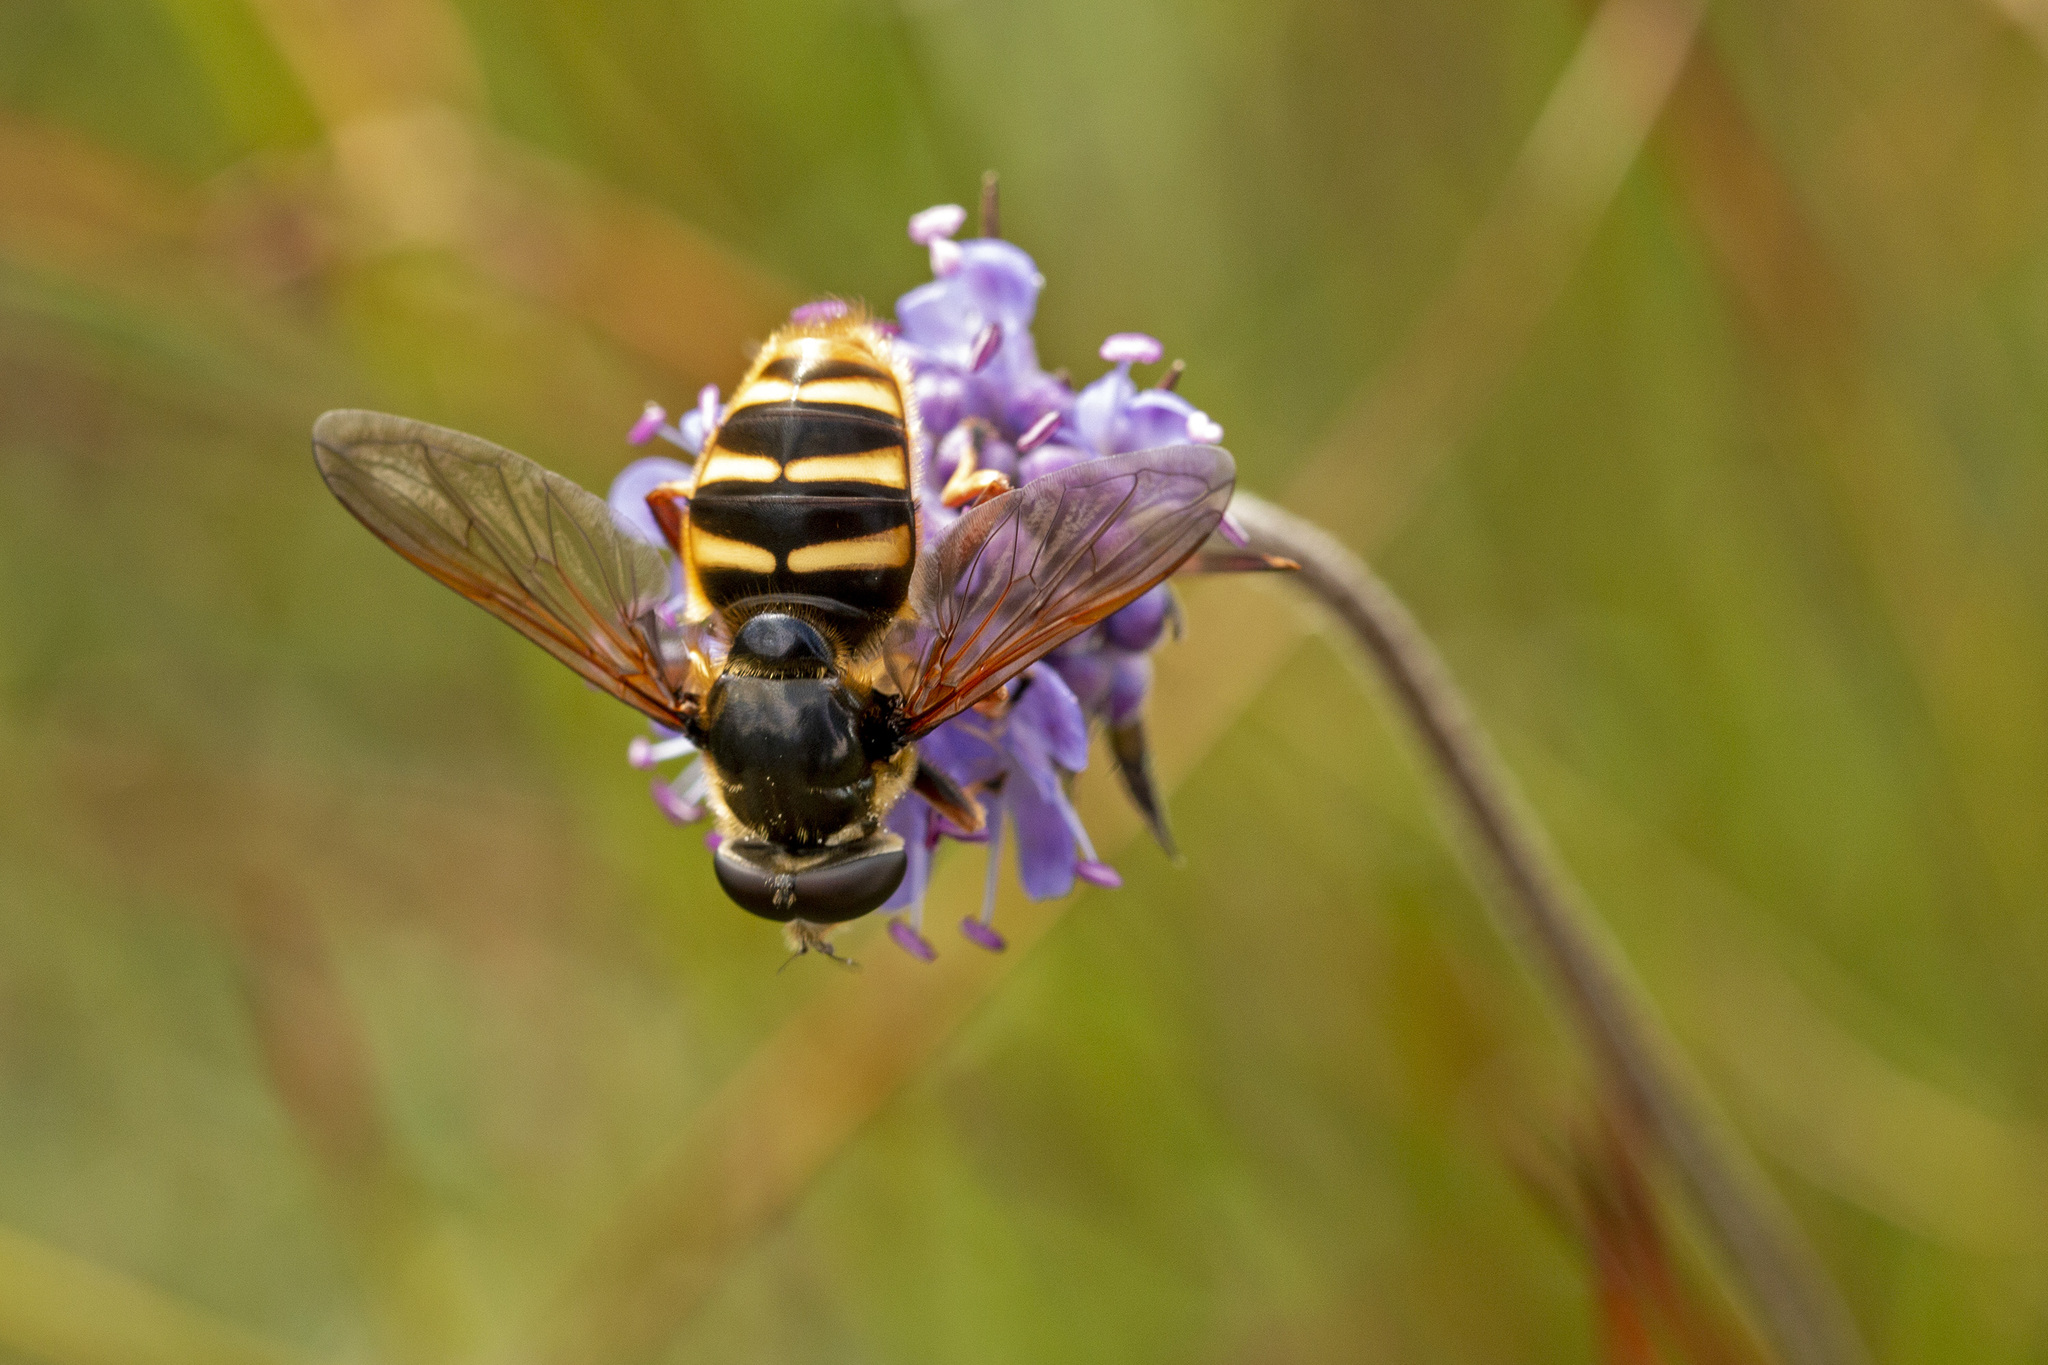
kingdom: Animalia
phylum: Arthropoda
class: Insecta
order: Diptera
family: Syrphidae
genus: Sericomyia
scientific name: Sericomyia silentis
